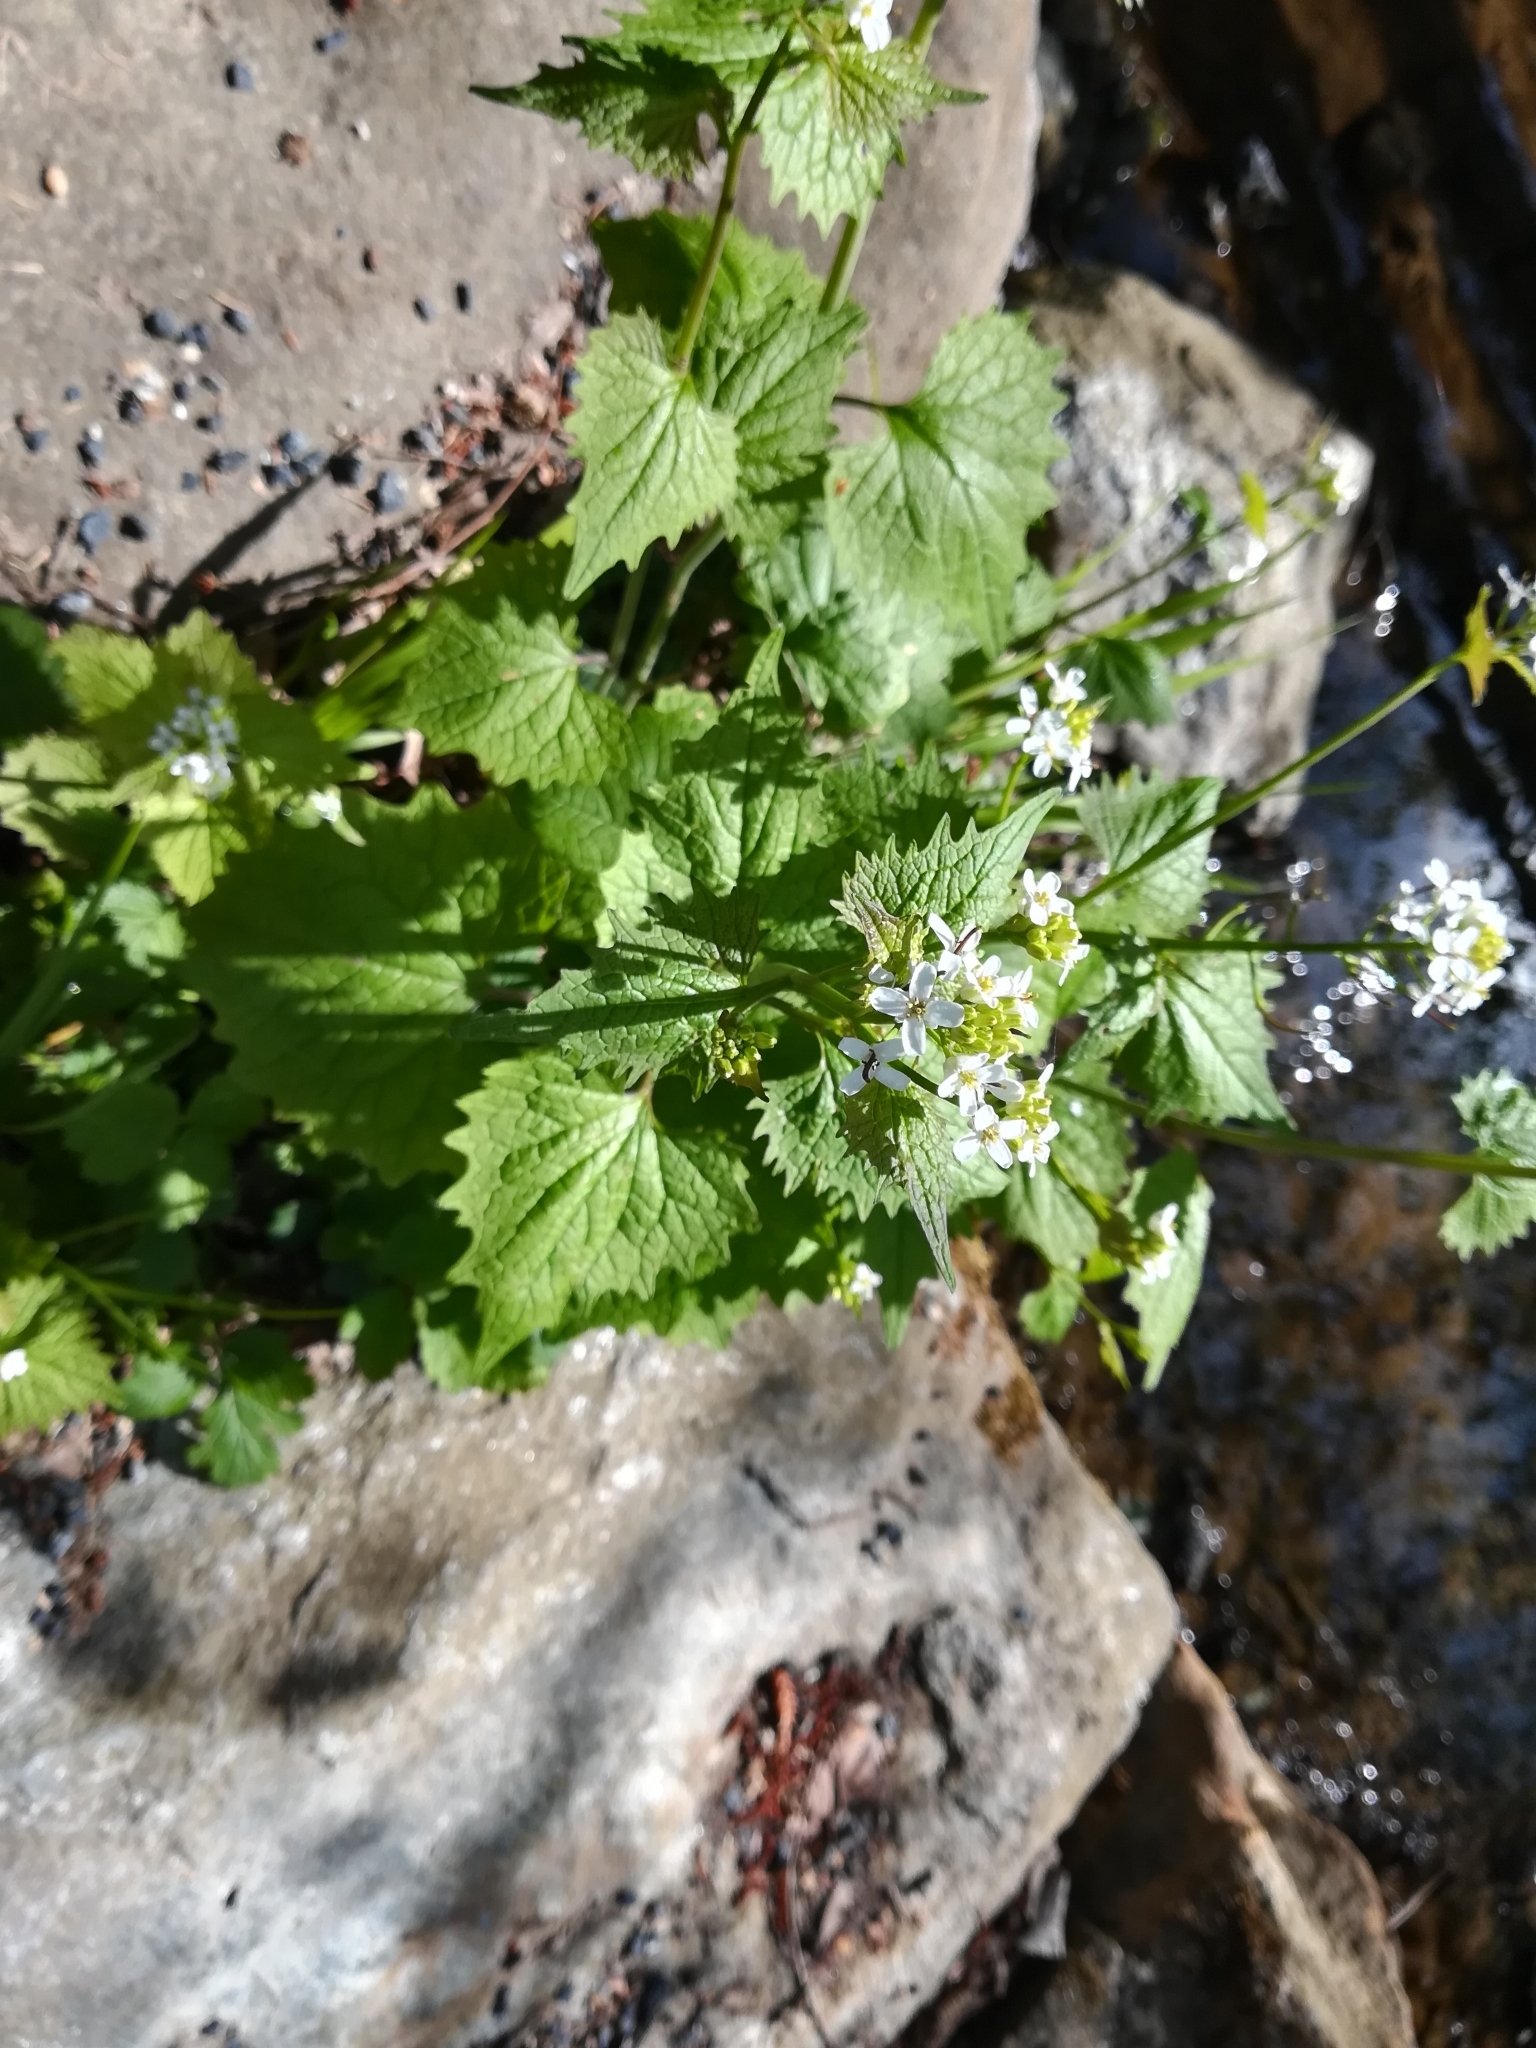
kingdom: Plantae
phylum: Tracheophyta
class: Magnoliopsida
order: Brassicales
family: Brassicaceae
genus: Alliaria
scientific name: Alliaria petiolata
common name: Garlic mustard
